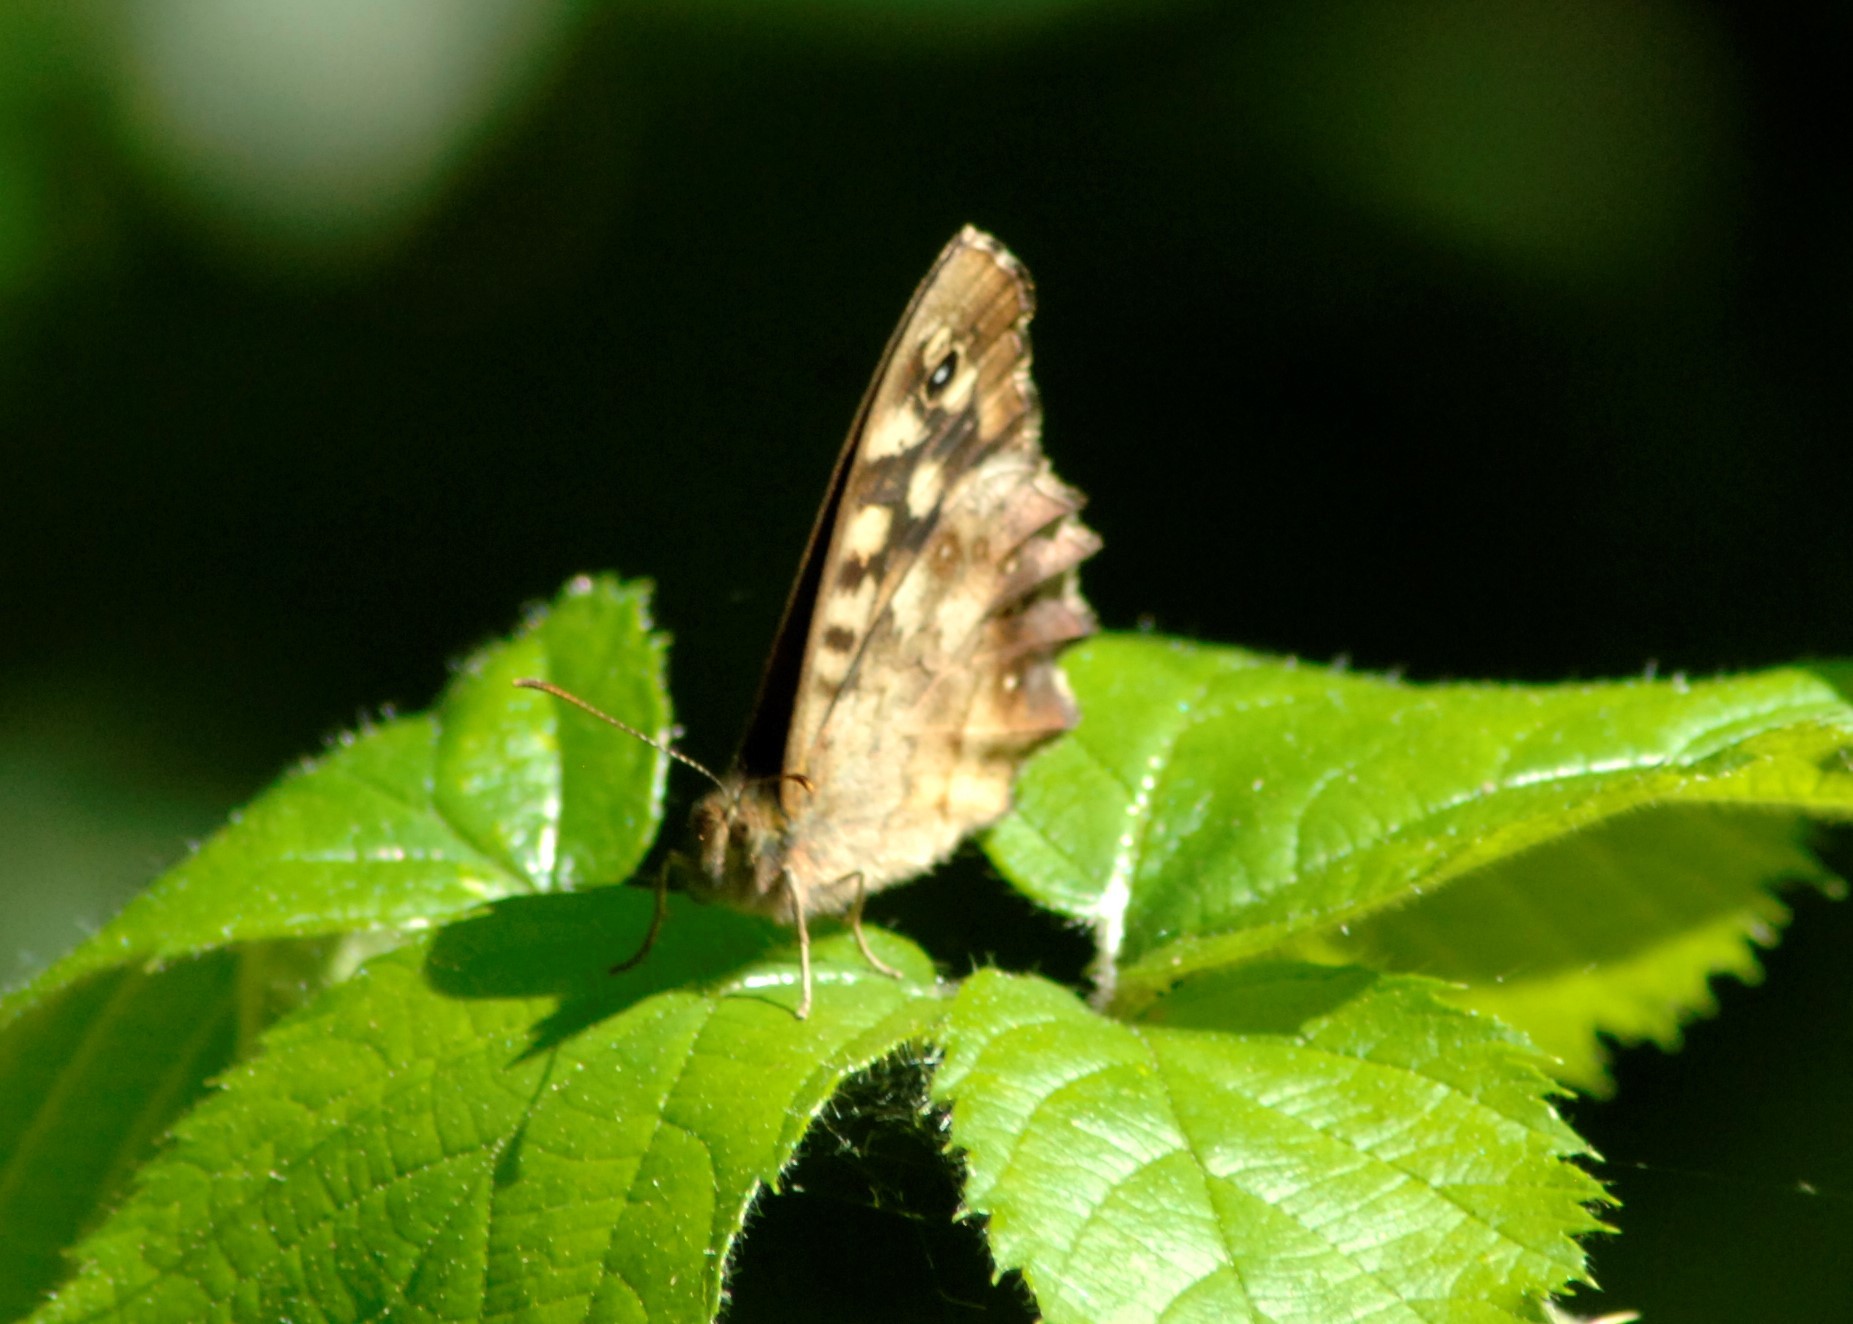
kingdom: Animalia
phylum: Arthropoda
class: Insecta
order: Lepidoptera
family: Nymphalidae
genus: Pararge
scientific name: Pararge aegeria
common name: Speckled wood
